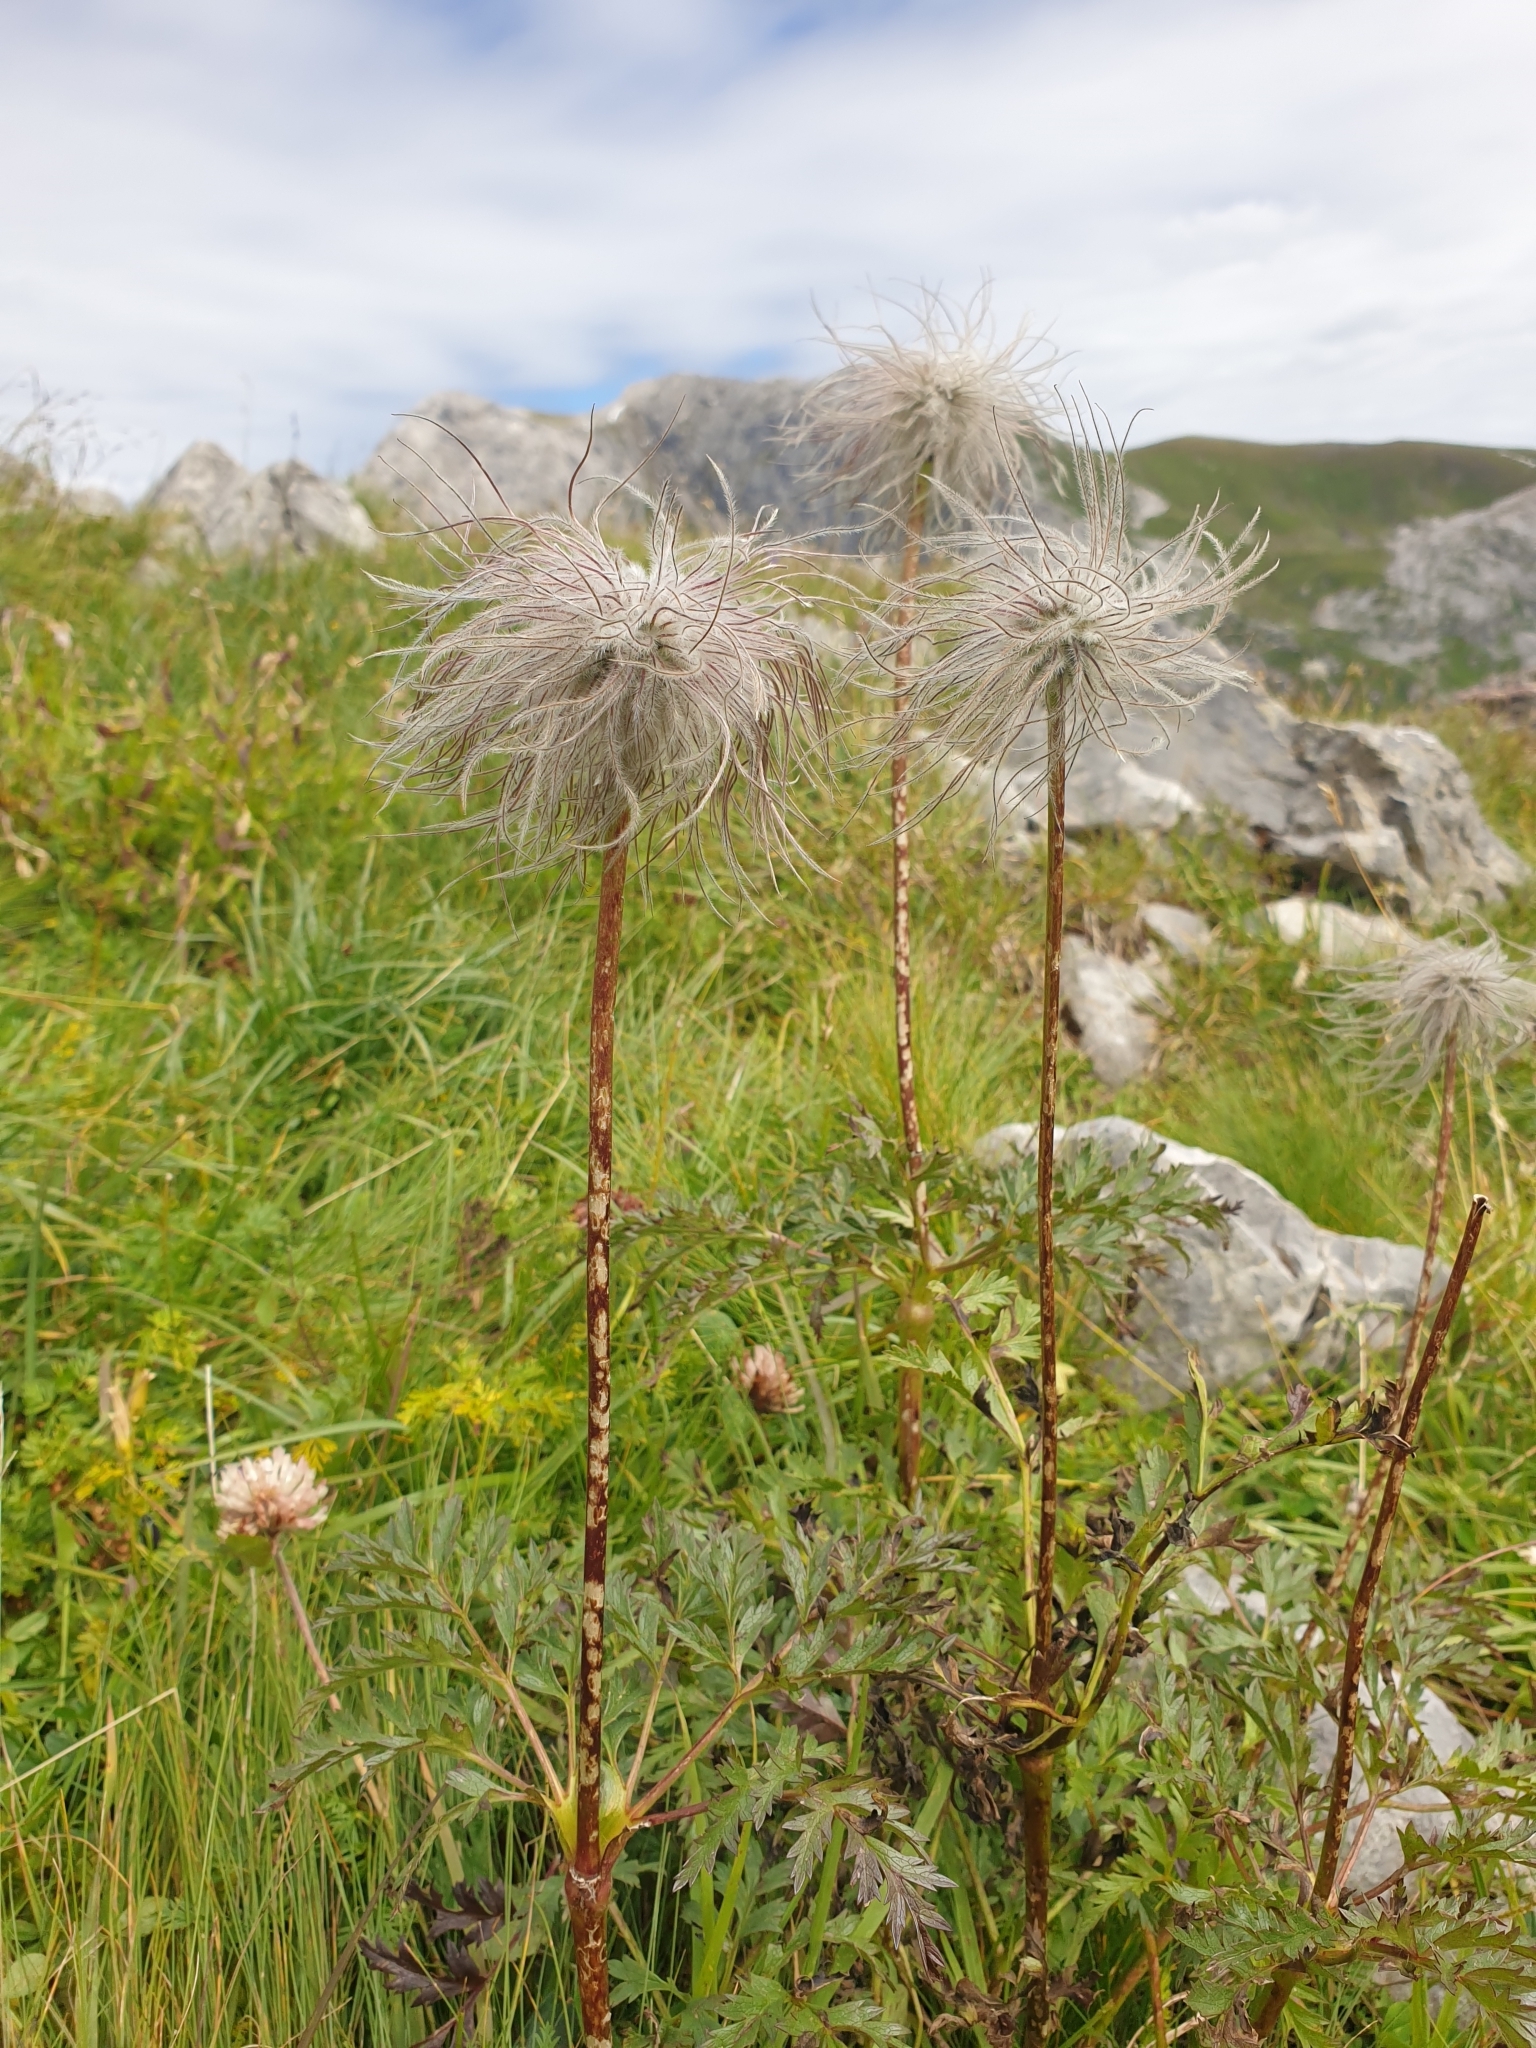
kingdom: Plantae
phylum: Tracheophyta
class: Magnoliopsida
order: Ranunculales
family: Ranunculaceae
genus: Pulsatilla
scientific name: Pulsatilla alpina
